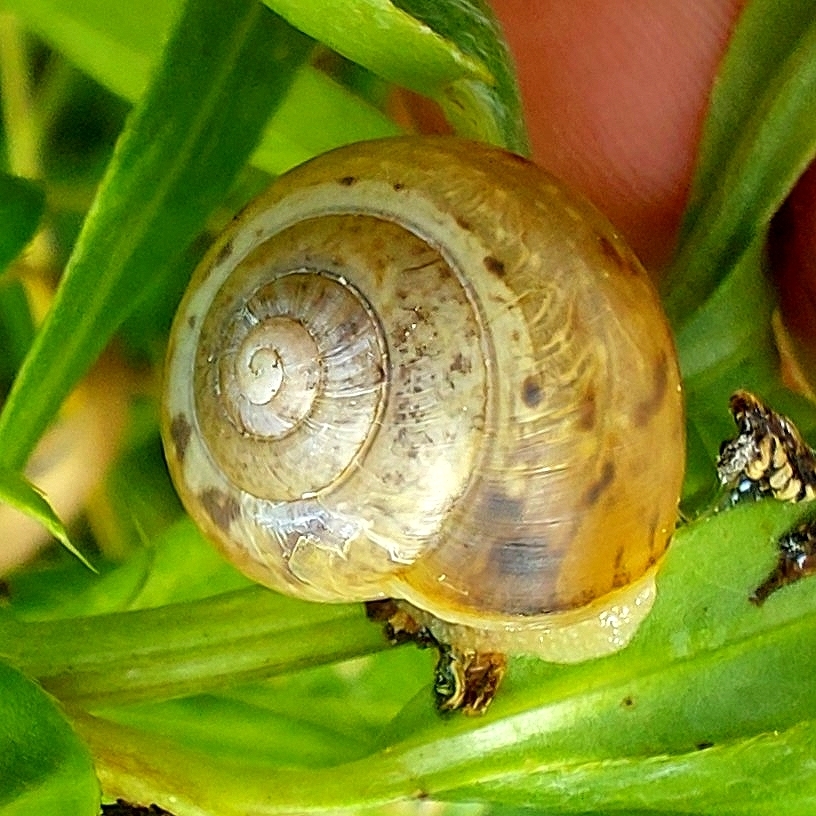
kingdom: Animalia
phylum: Mollusca
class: Gastropoda
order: Stylommatophora
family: Camaenidae
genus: Fruticicola
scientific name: Fruticicola fruticum
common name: Bush snail
